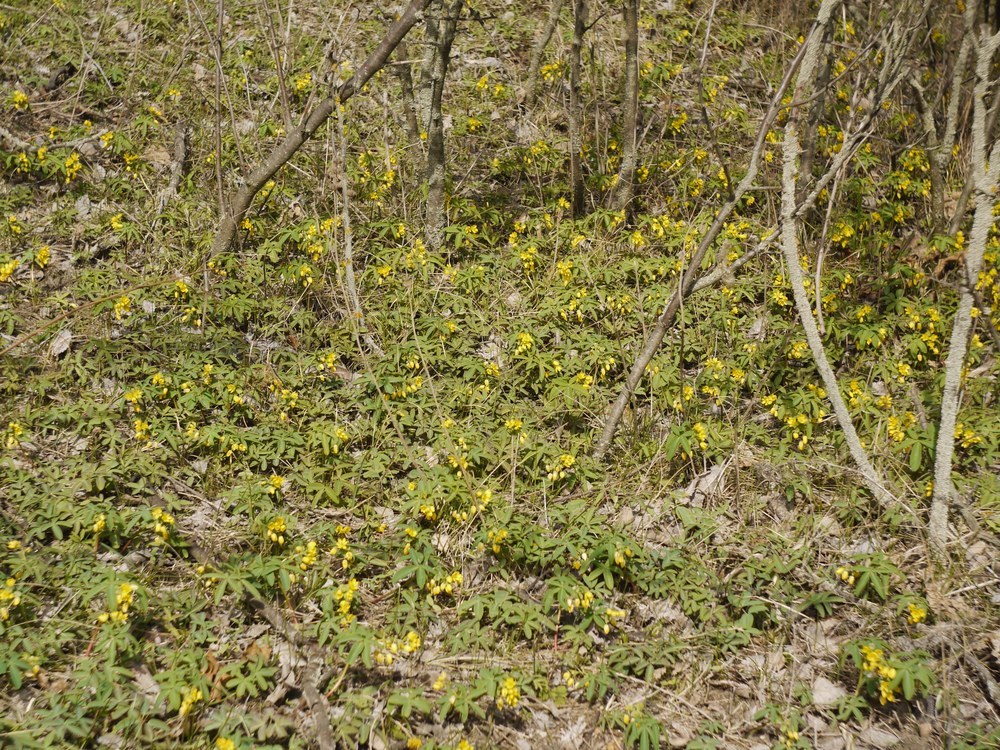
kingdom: Plantae
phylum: Tracheophyta
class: Magnoliopsida
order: Ranunculales
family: Berberidaceae
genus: Gymnospermium
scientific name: Gymnospermium odessanum
